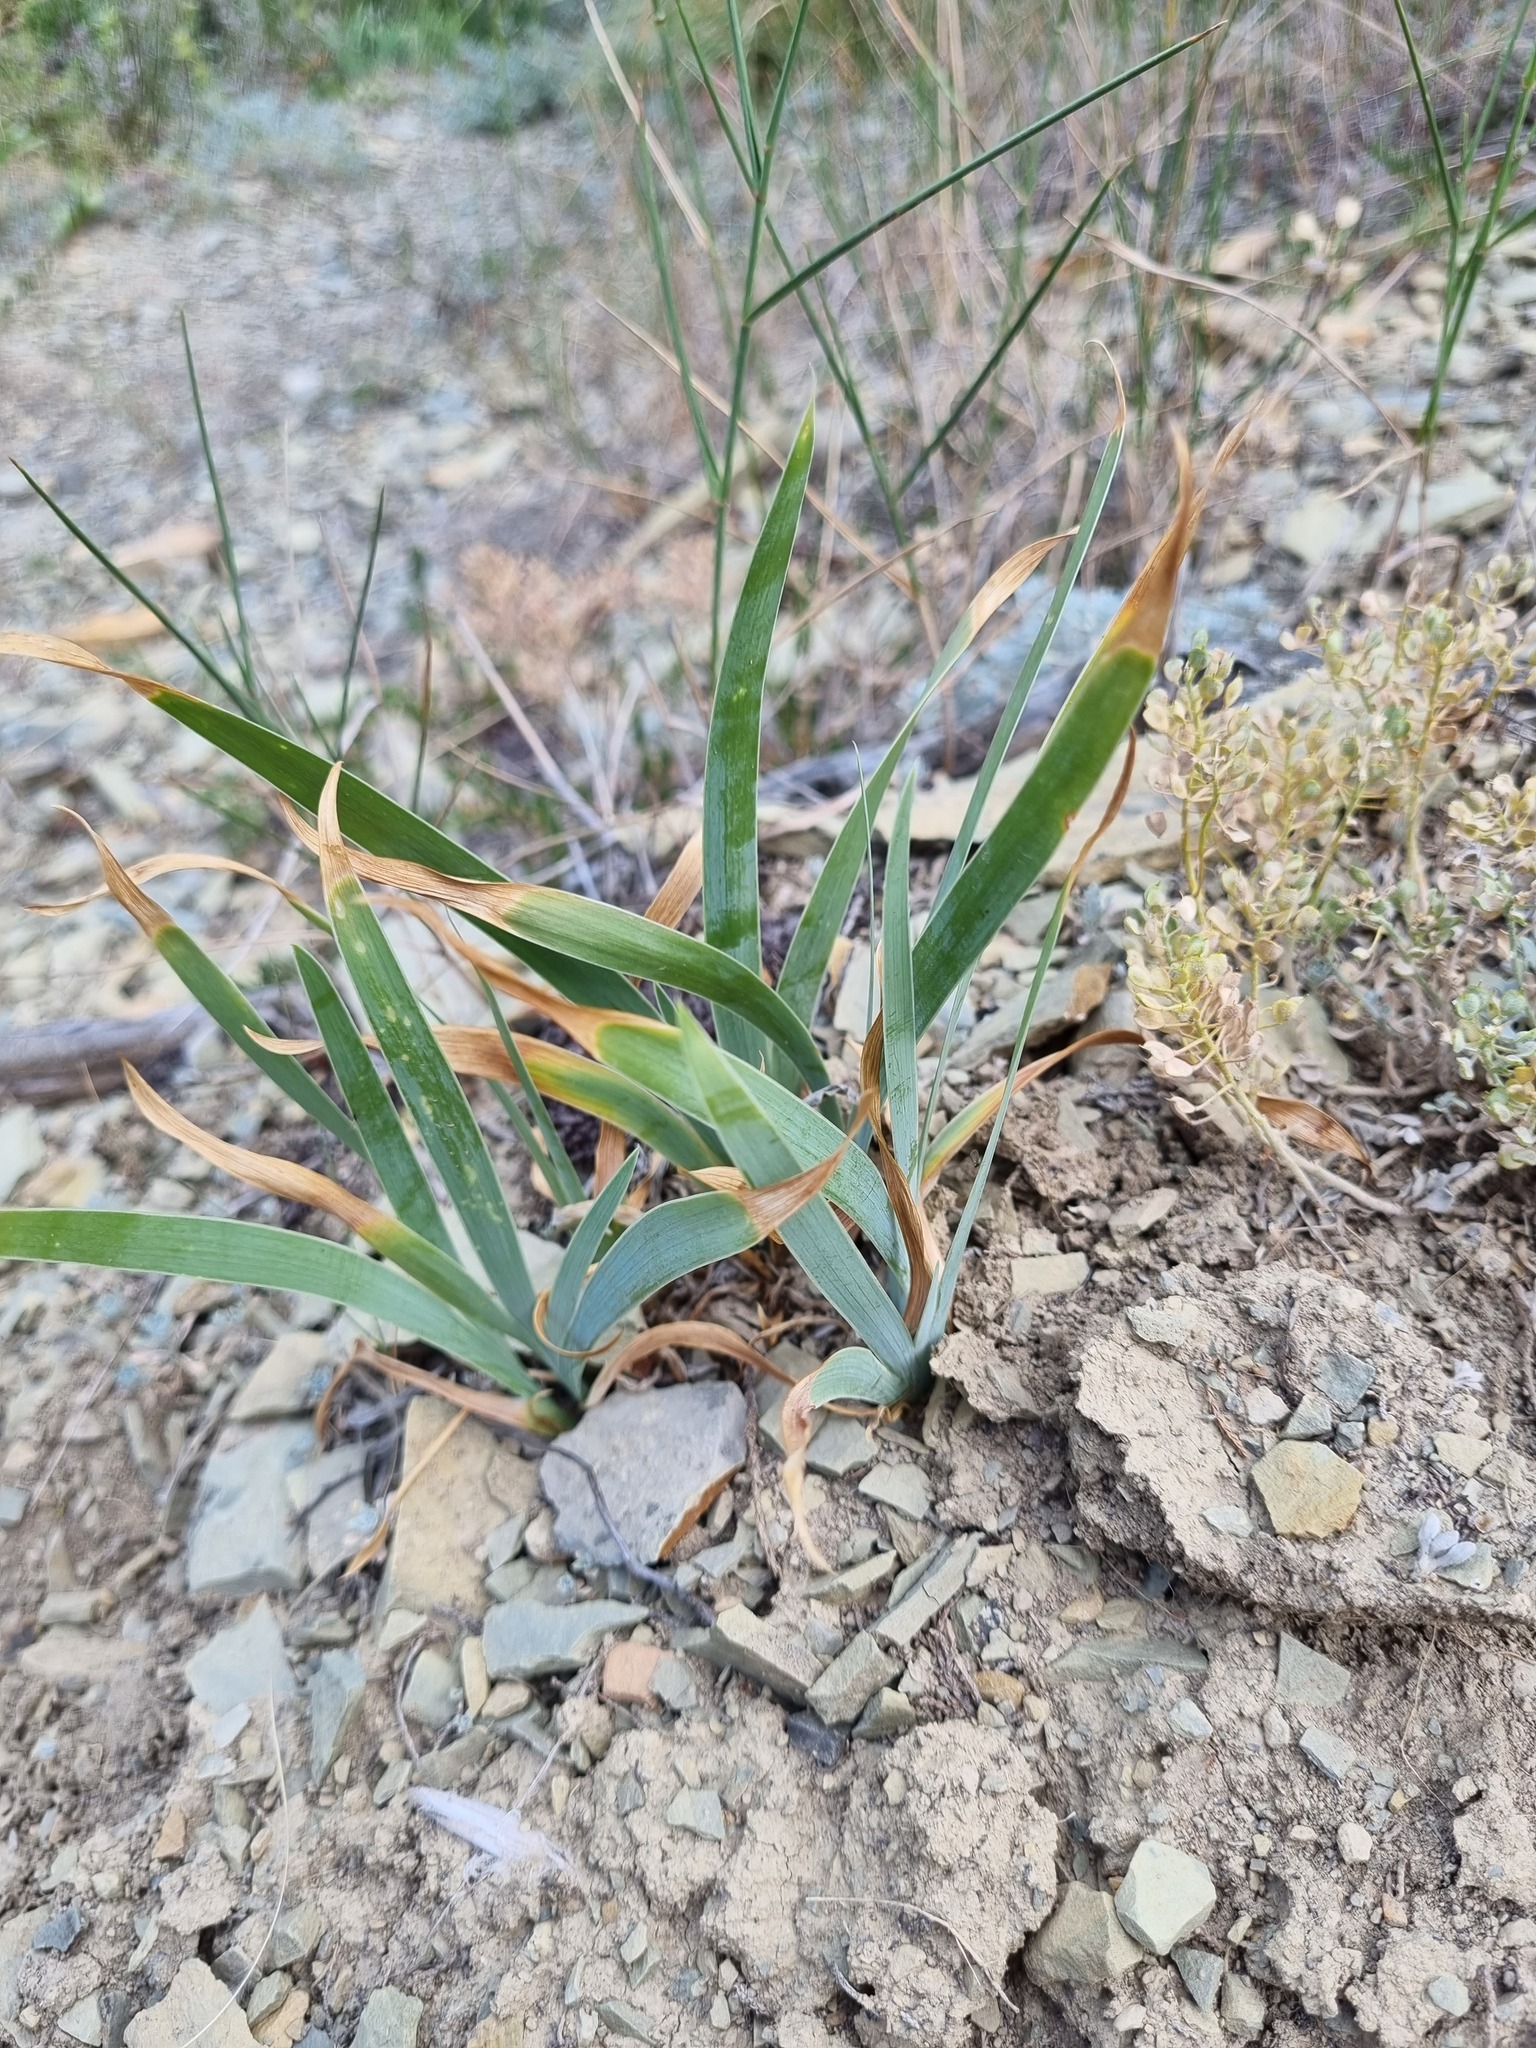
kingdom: Plantae
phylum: Tracheophyta
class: Liliopsida
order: Asparagales
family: Iridaceae
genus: Iris
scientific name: Iris pumila
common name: Dwarf iris
